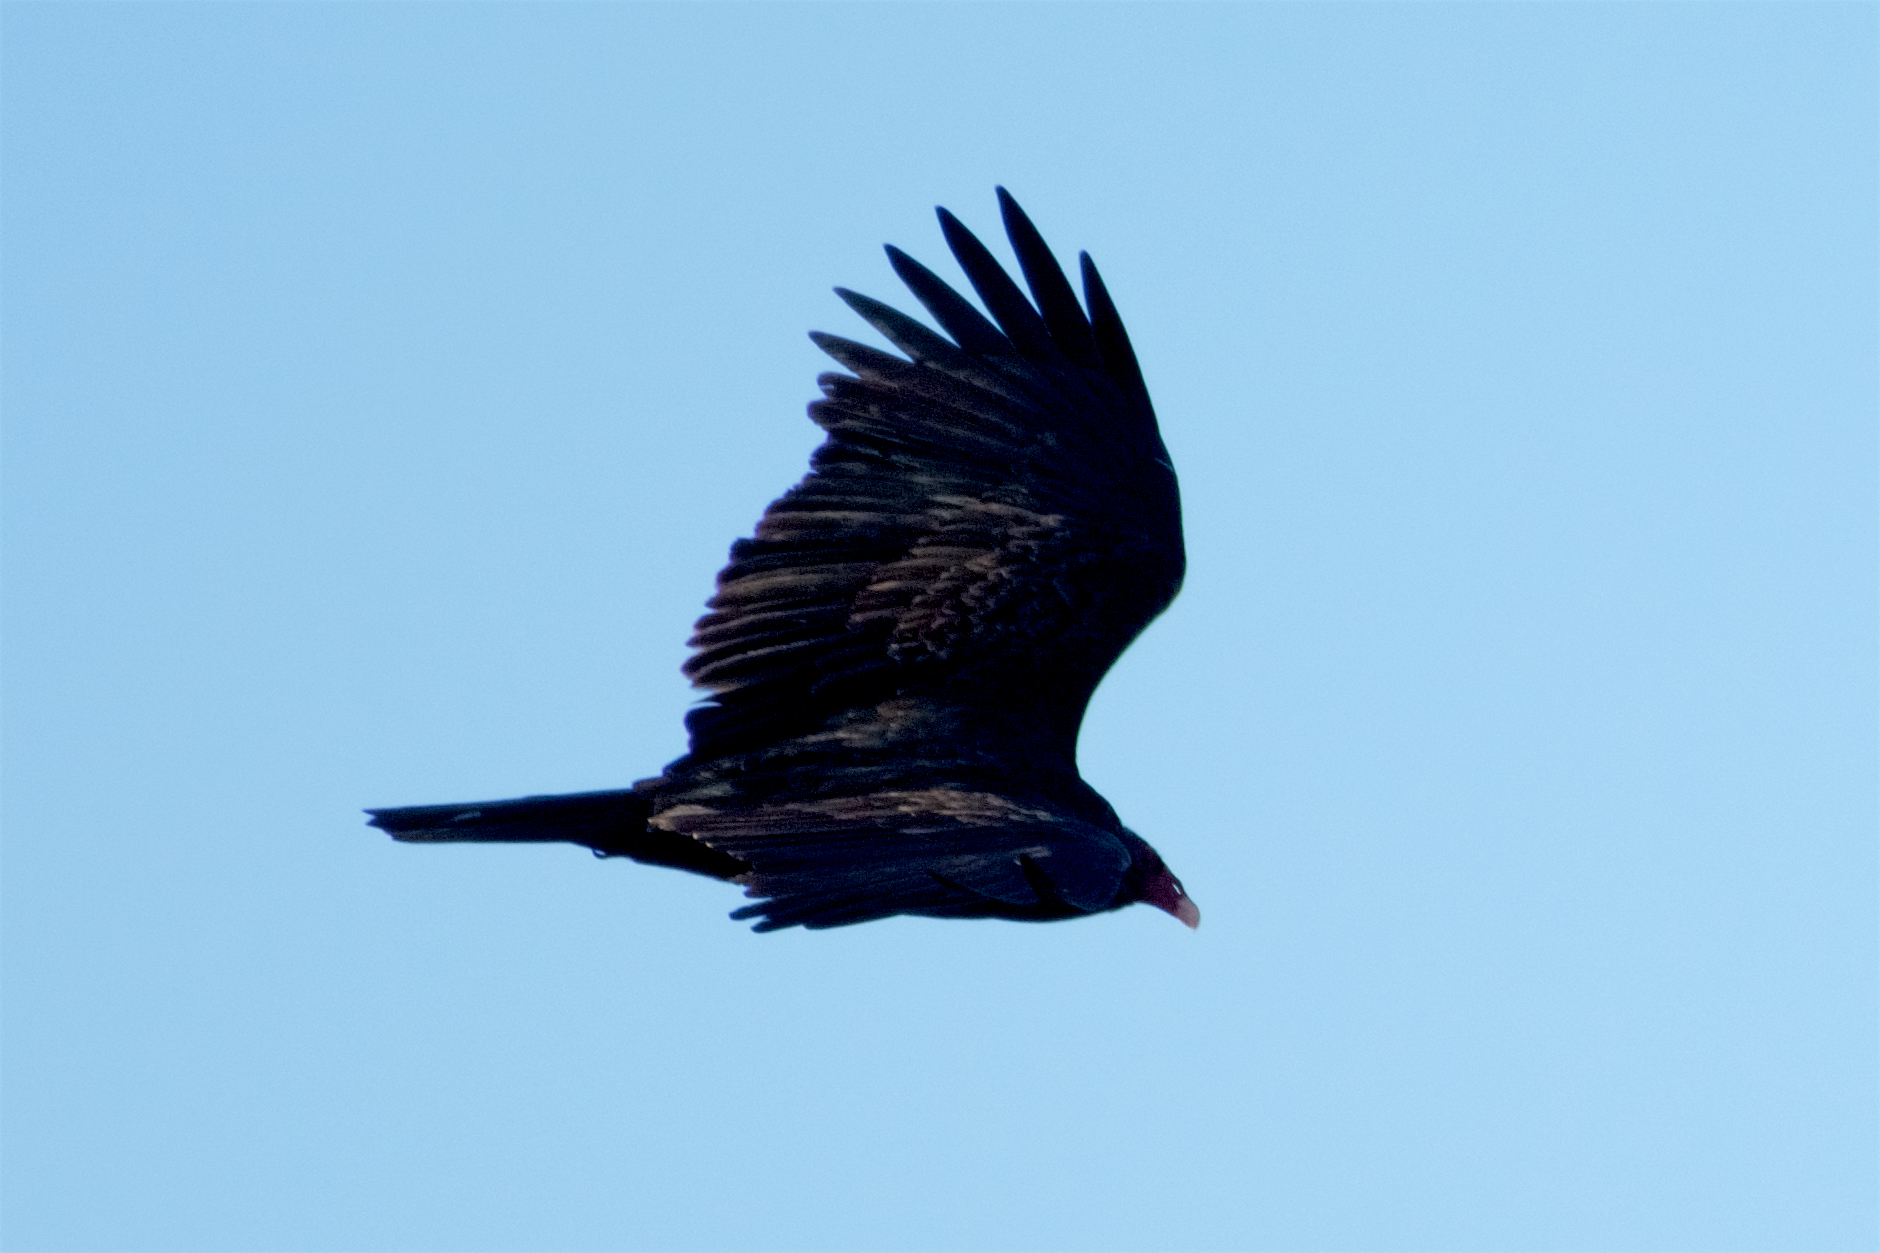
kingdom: Animalia
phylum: Chordata
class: Aves
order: Accipitriformes
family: Cathartidae
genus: Cathartes
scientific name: Cathartes aura
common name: Turkey vulture
